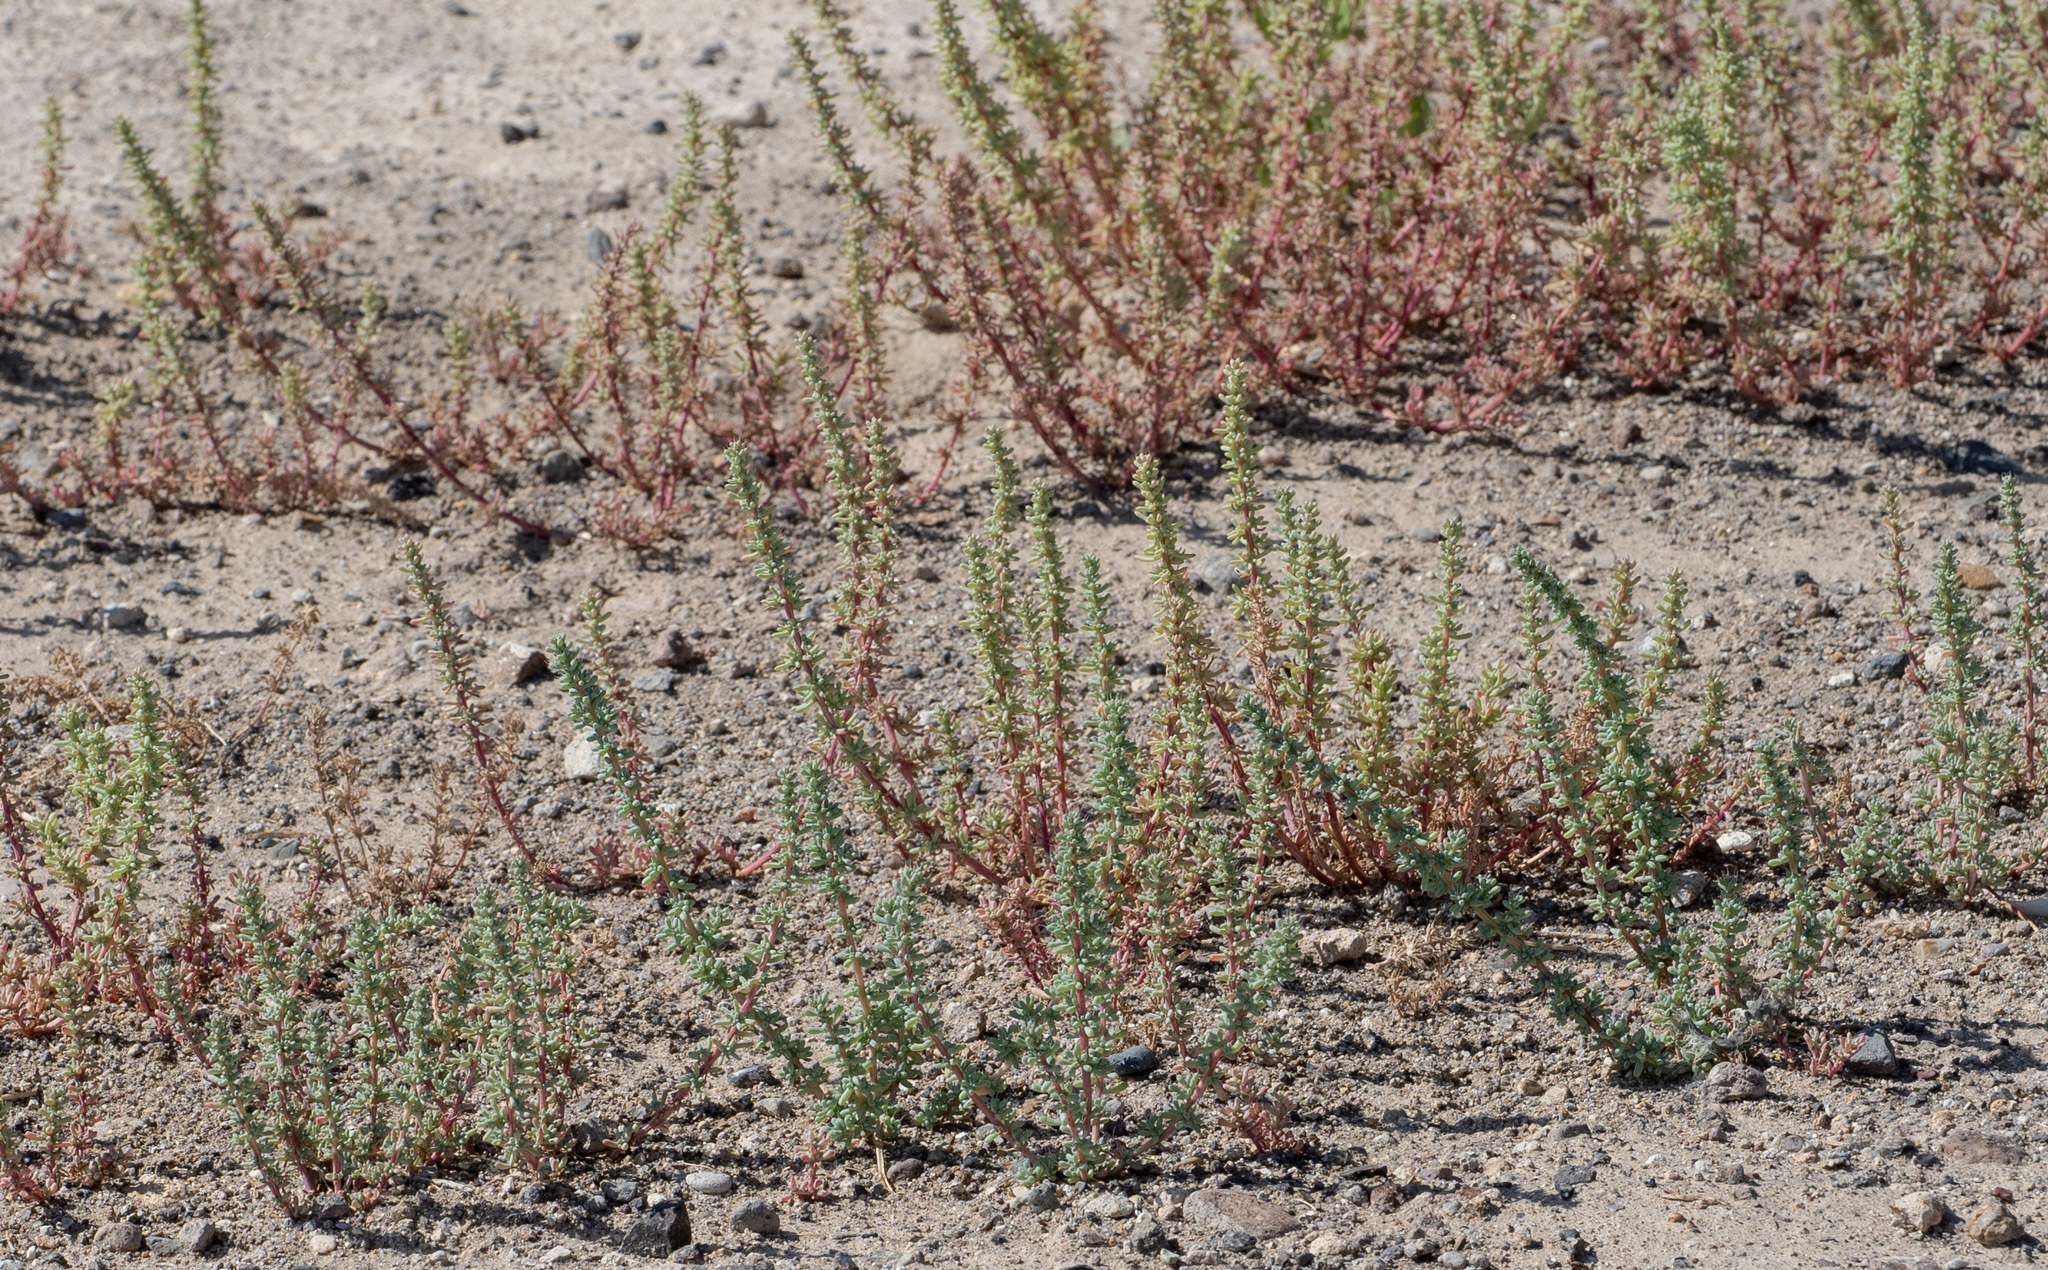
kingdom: Plantae
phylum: Tracheophyta
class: Magnoliopsida
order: Caryophyllales
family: Amaranthaceae
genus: Halogeton
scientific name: Halogeton glomeratus
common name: Saltlover
